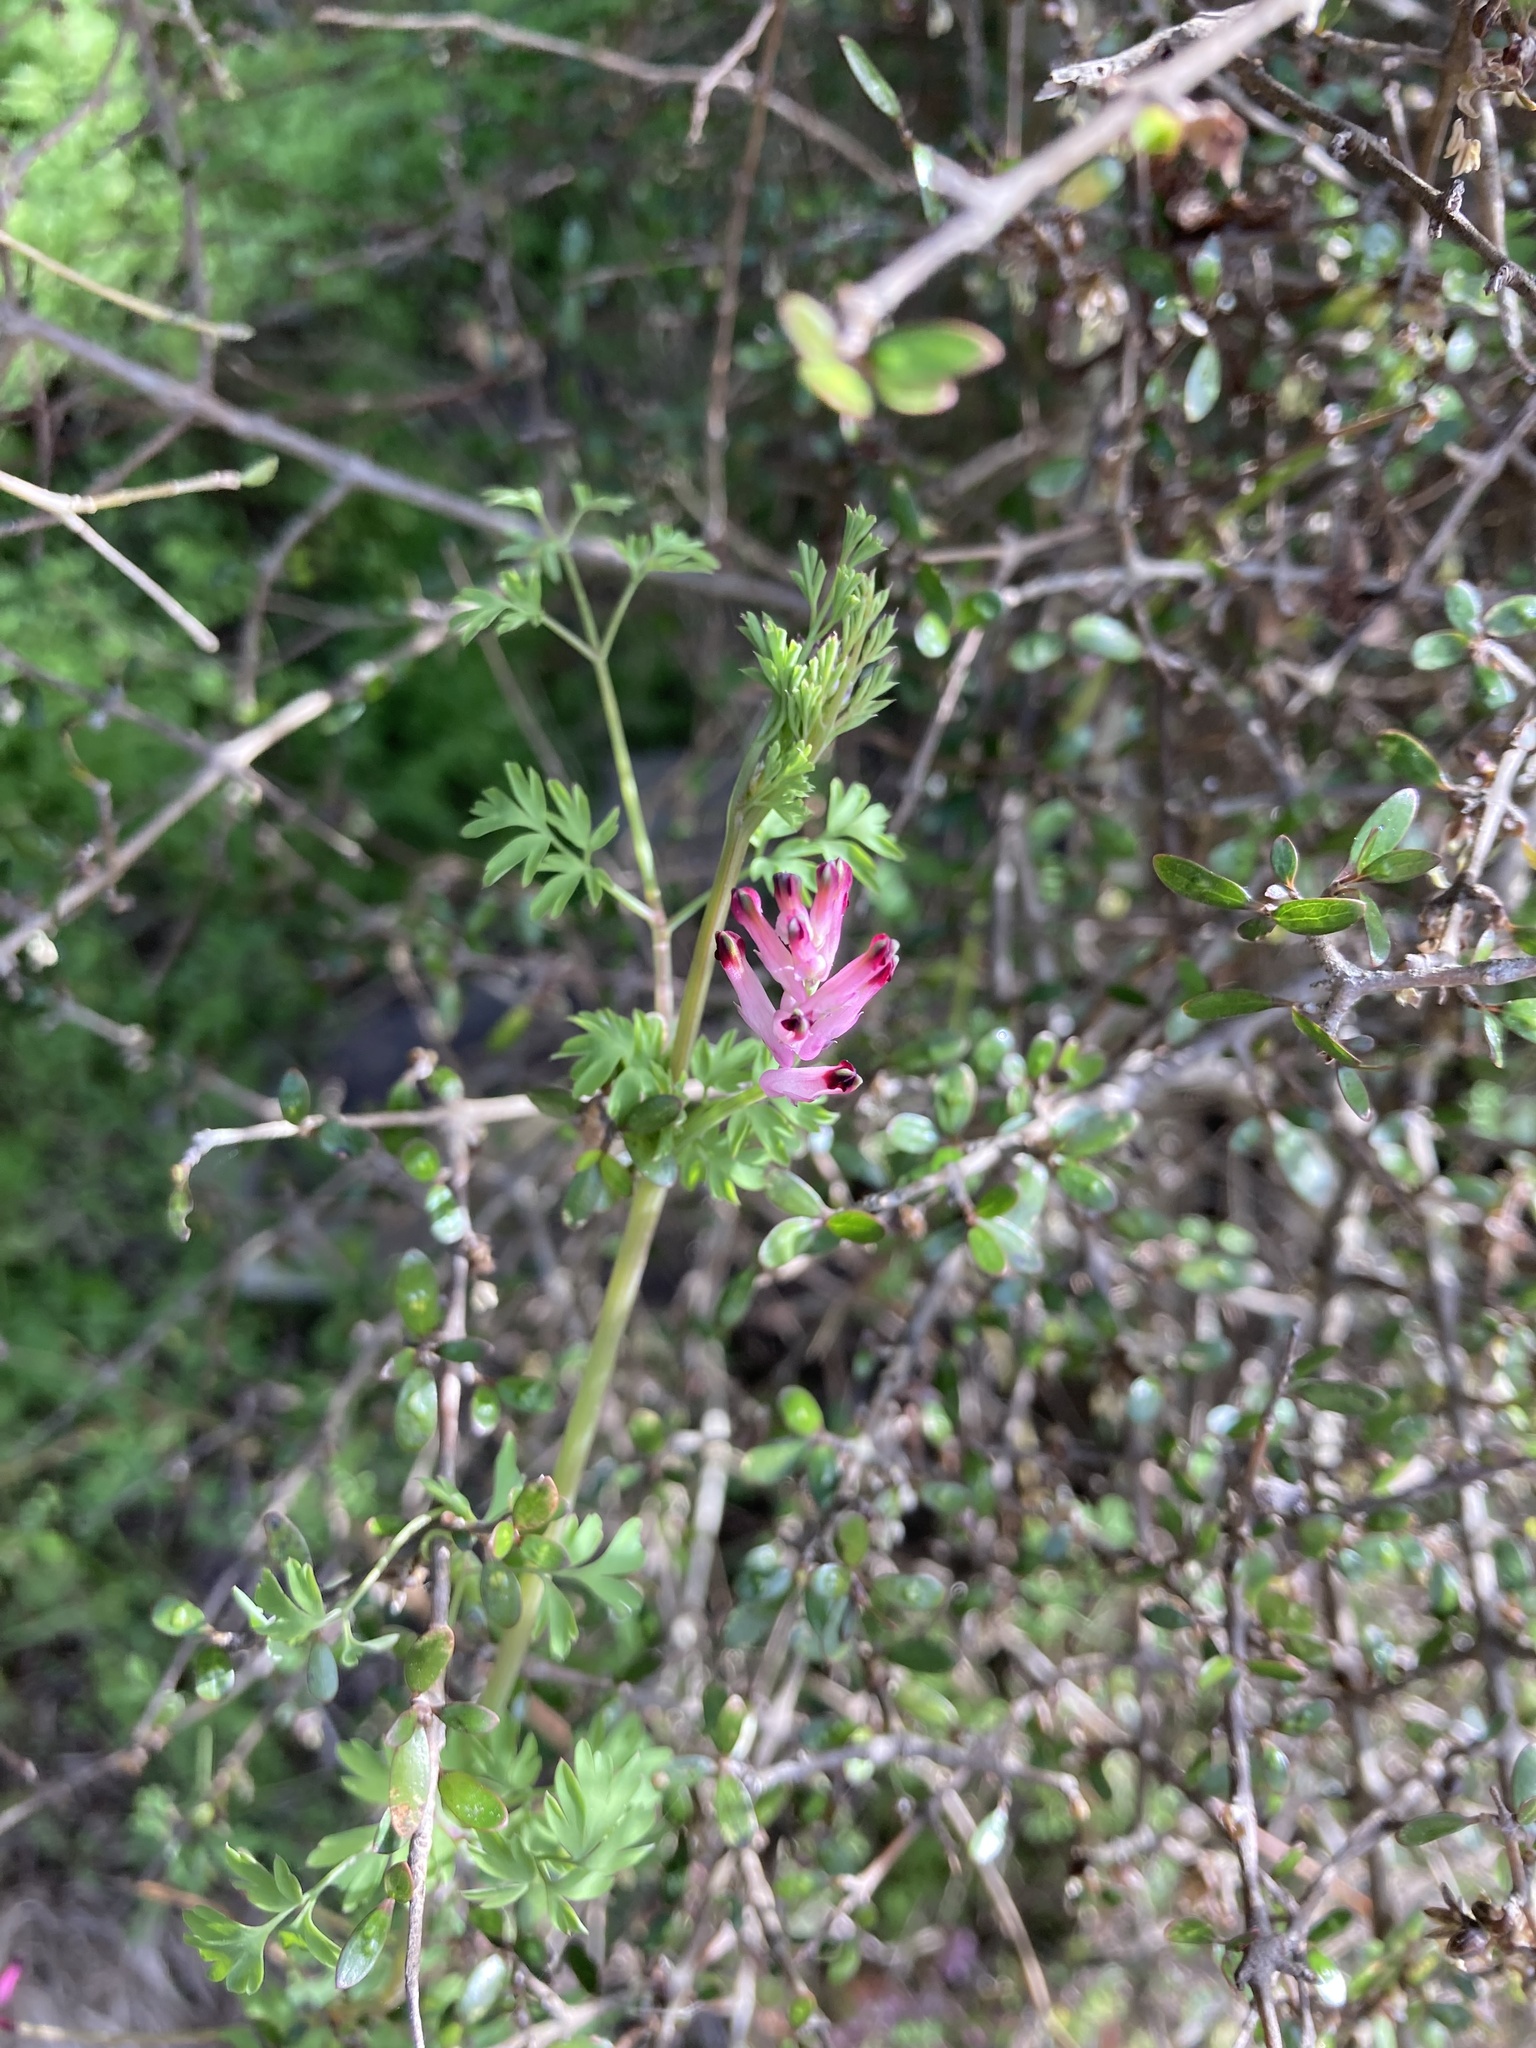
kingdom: Plantae
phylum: Tracheophyta
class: Magnoliopsida
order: Ranunculales
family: Papaveraceae
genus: Fumaria
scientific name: Fumaria muralis
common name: Common ramping-fumitory
